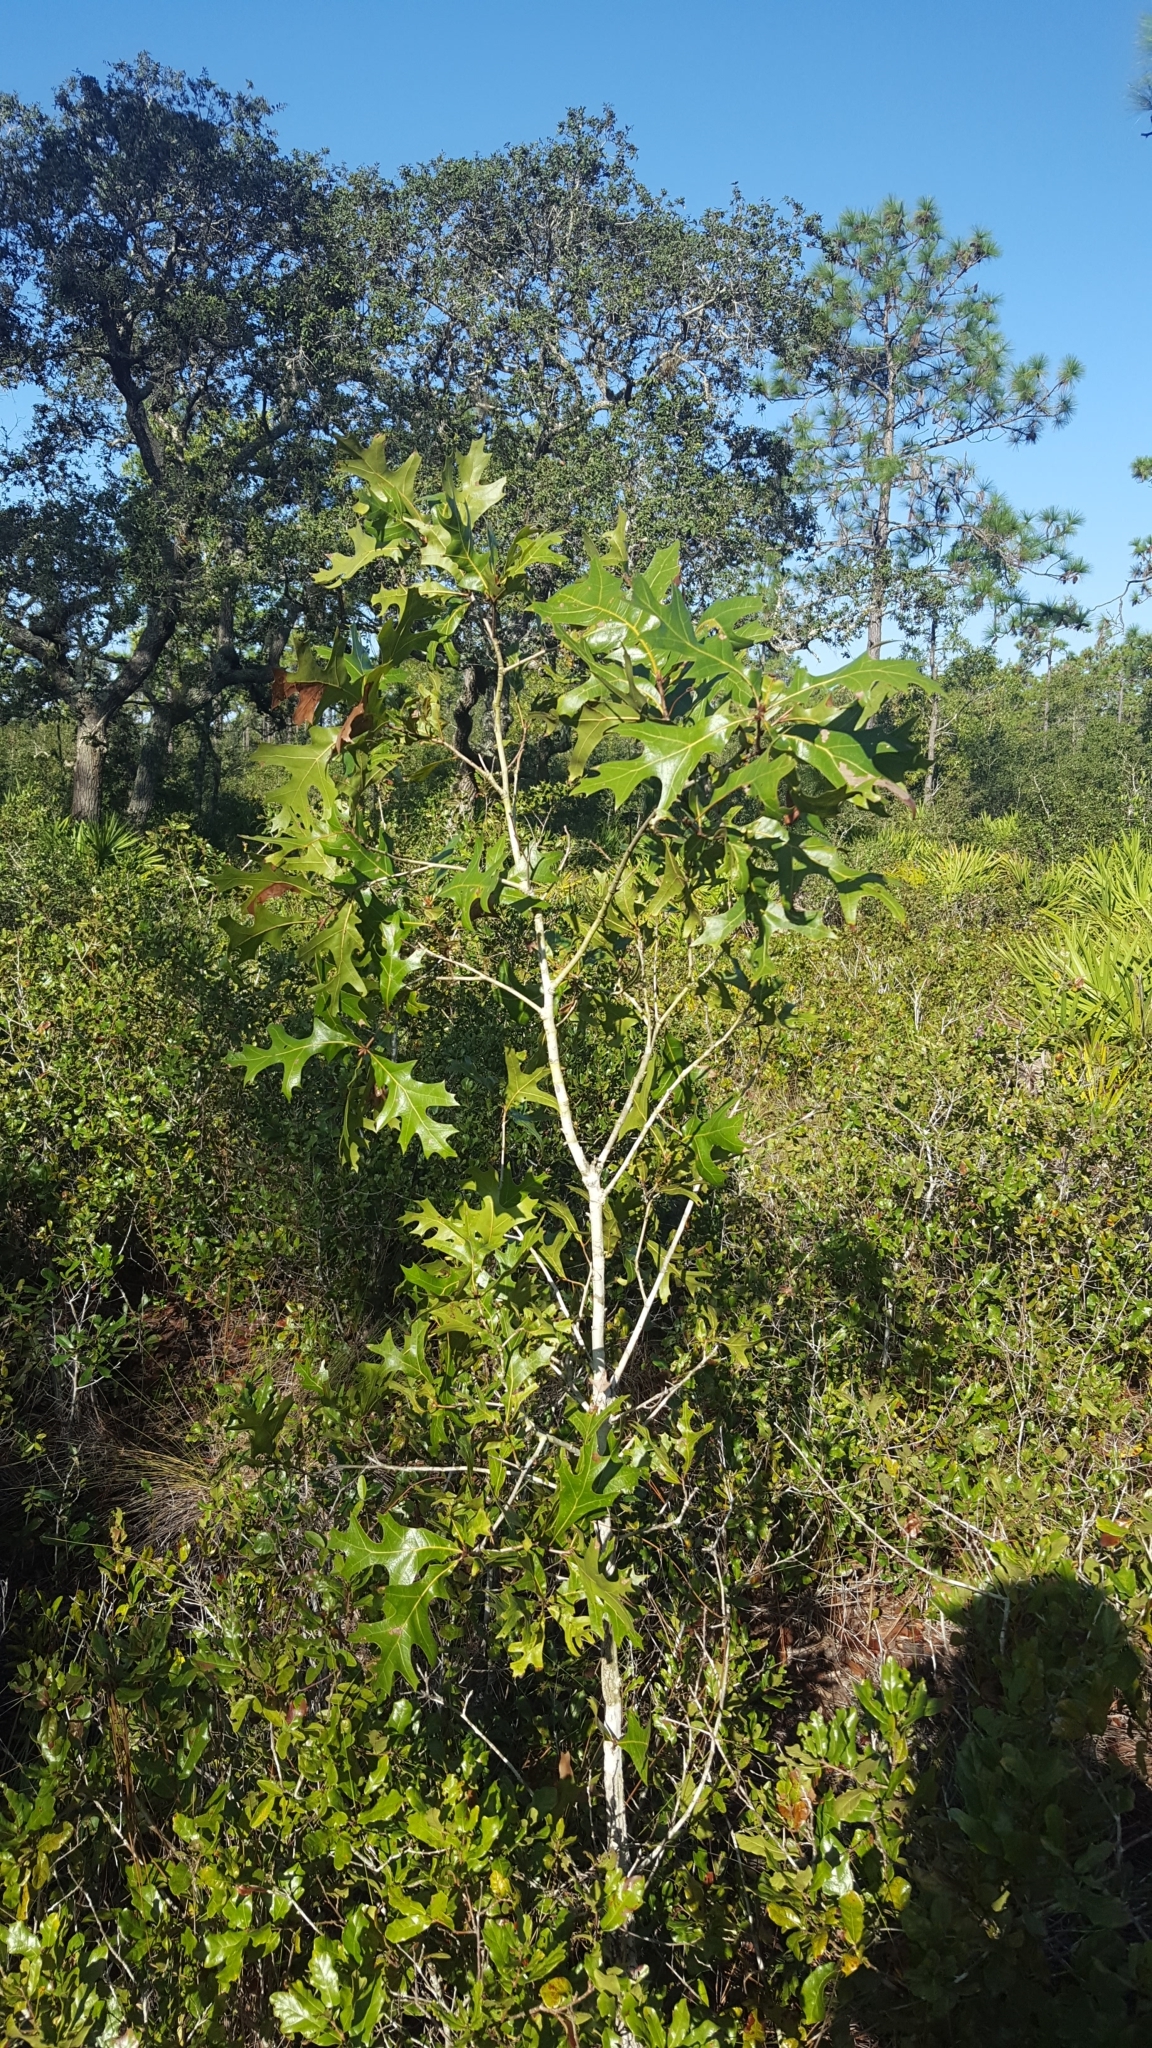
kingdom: Plantae
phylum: Tracheophyta
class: Magnoliopsida
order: Fagales
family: Fagaceae
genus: Quercus
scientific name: Quercus laevis
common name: Turkey oak
